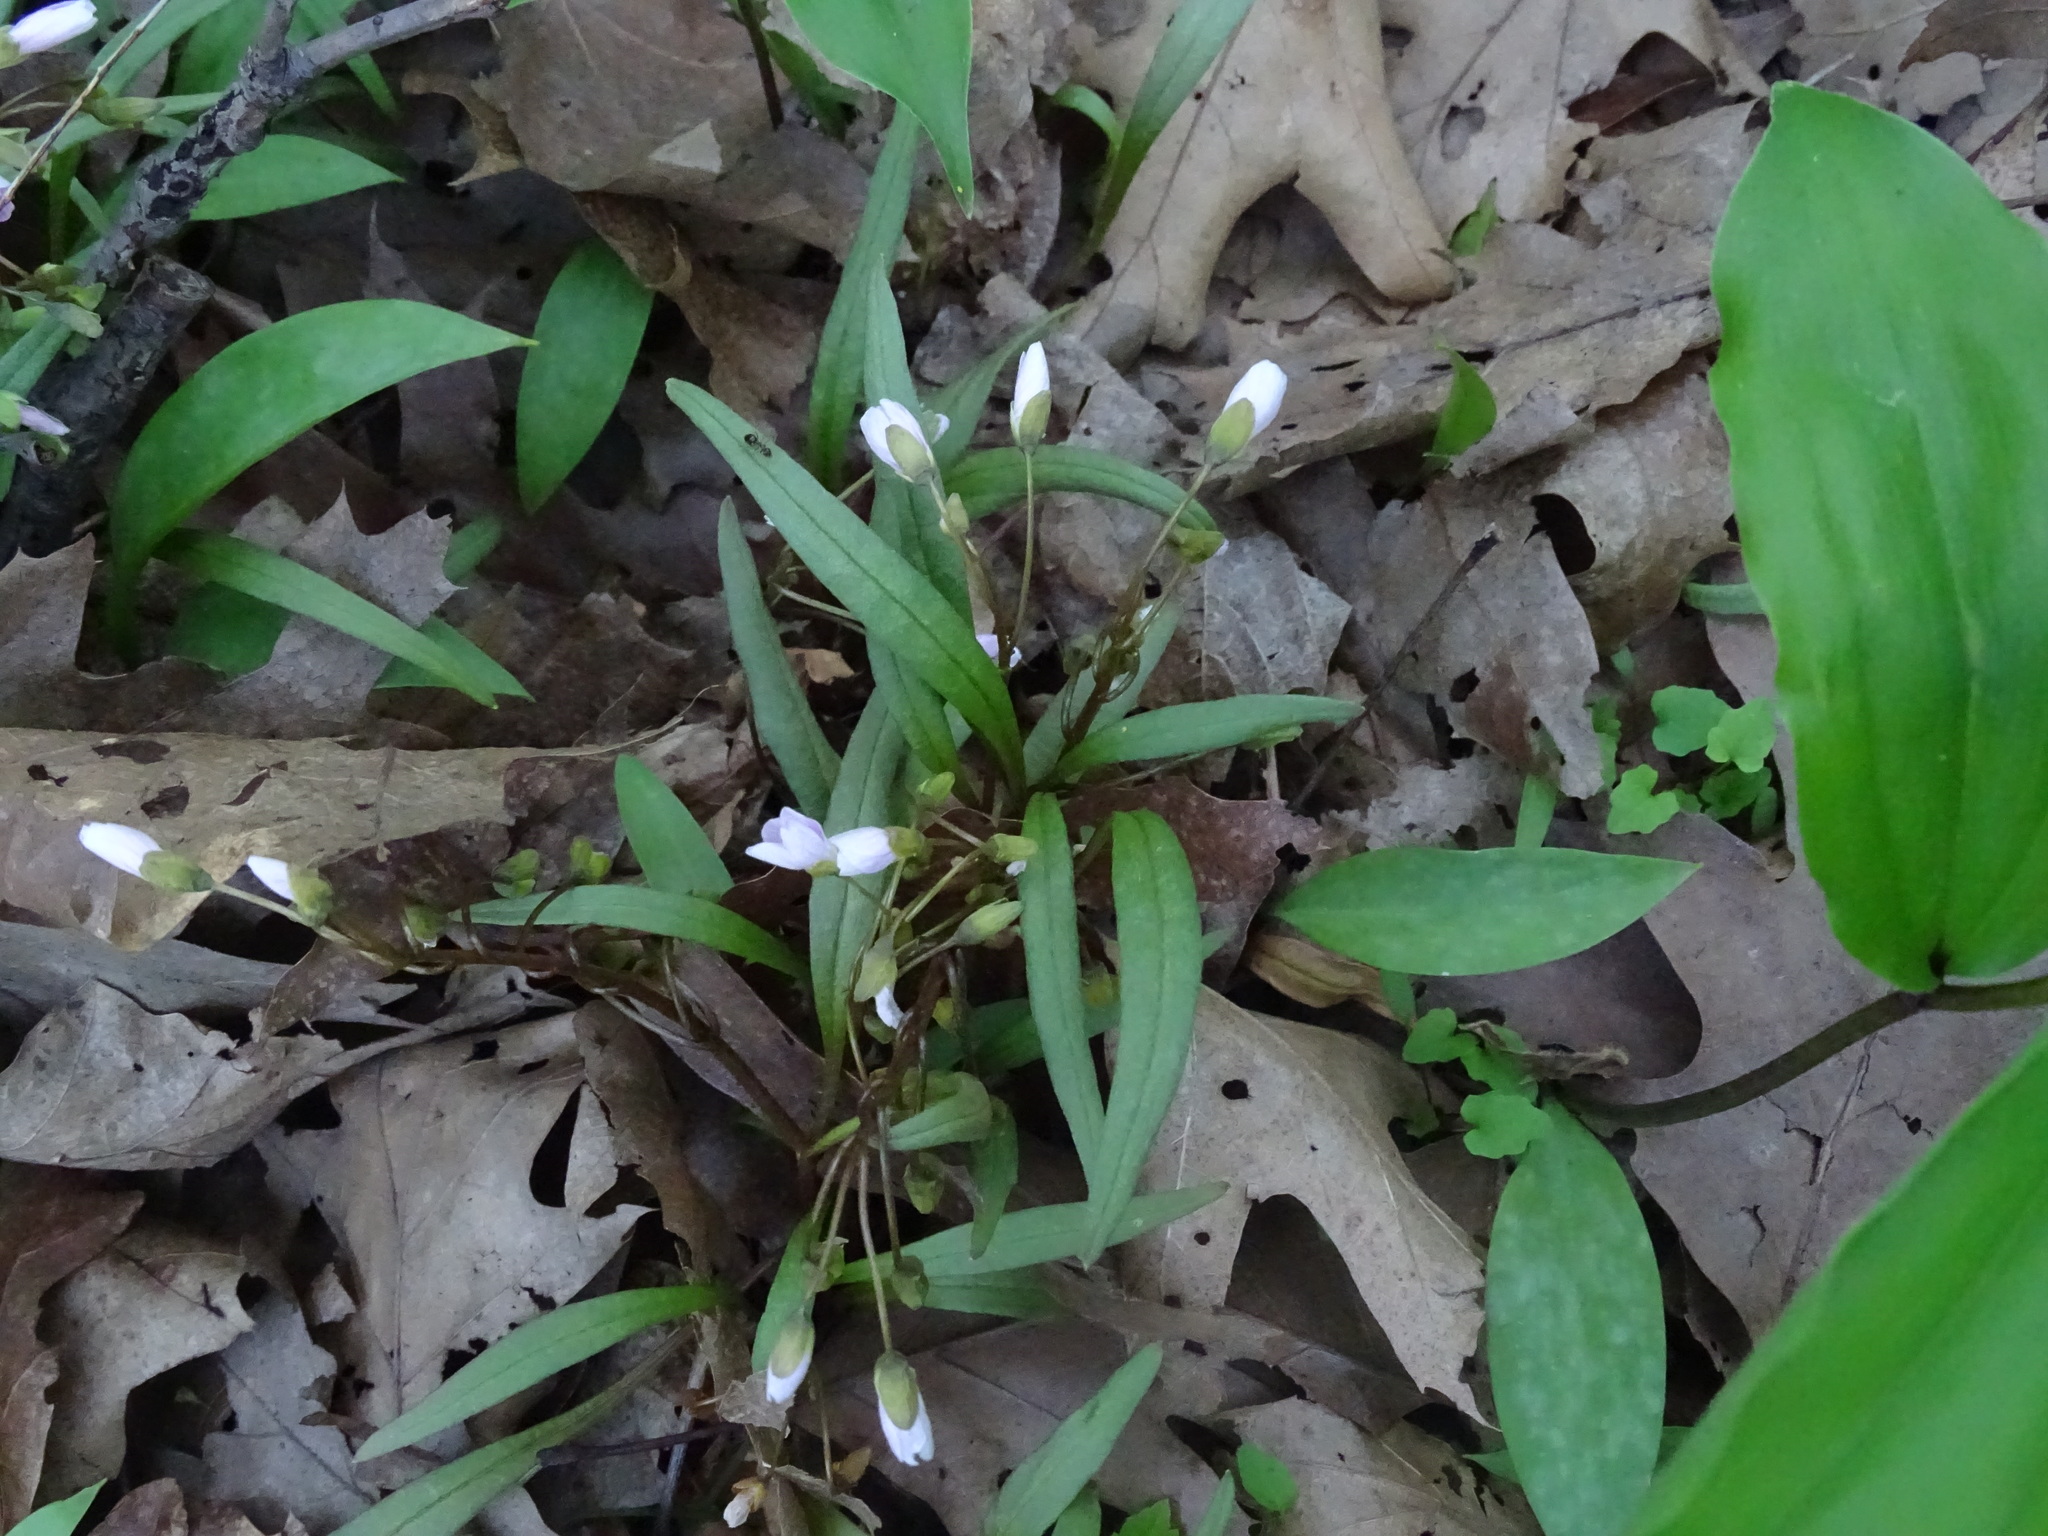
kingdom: Plantae
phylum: Tracheophyta
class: Magnoliopsida
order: Caryophyllales
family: Montiaceae
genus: Claytonia
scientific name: Claytonia virginica
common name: Virginia springbeauty
